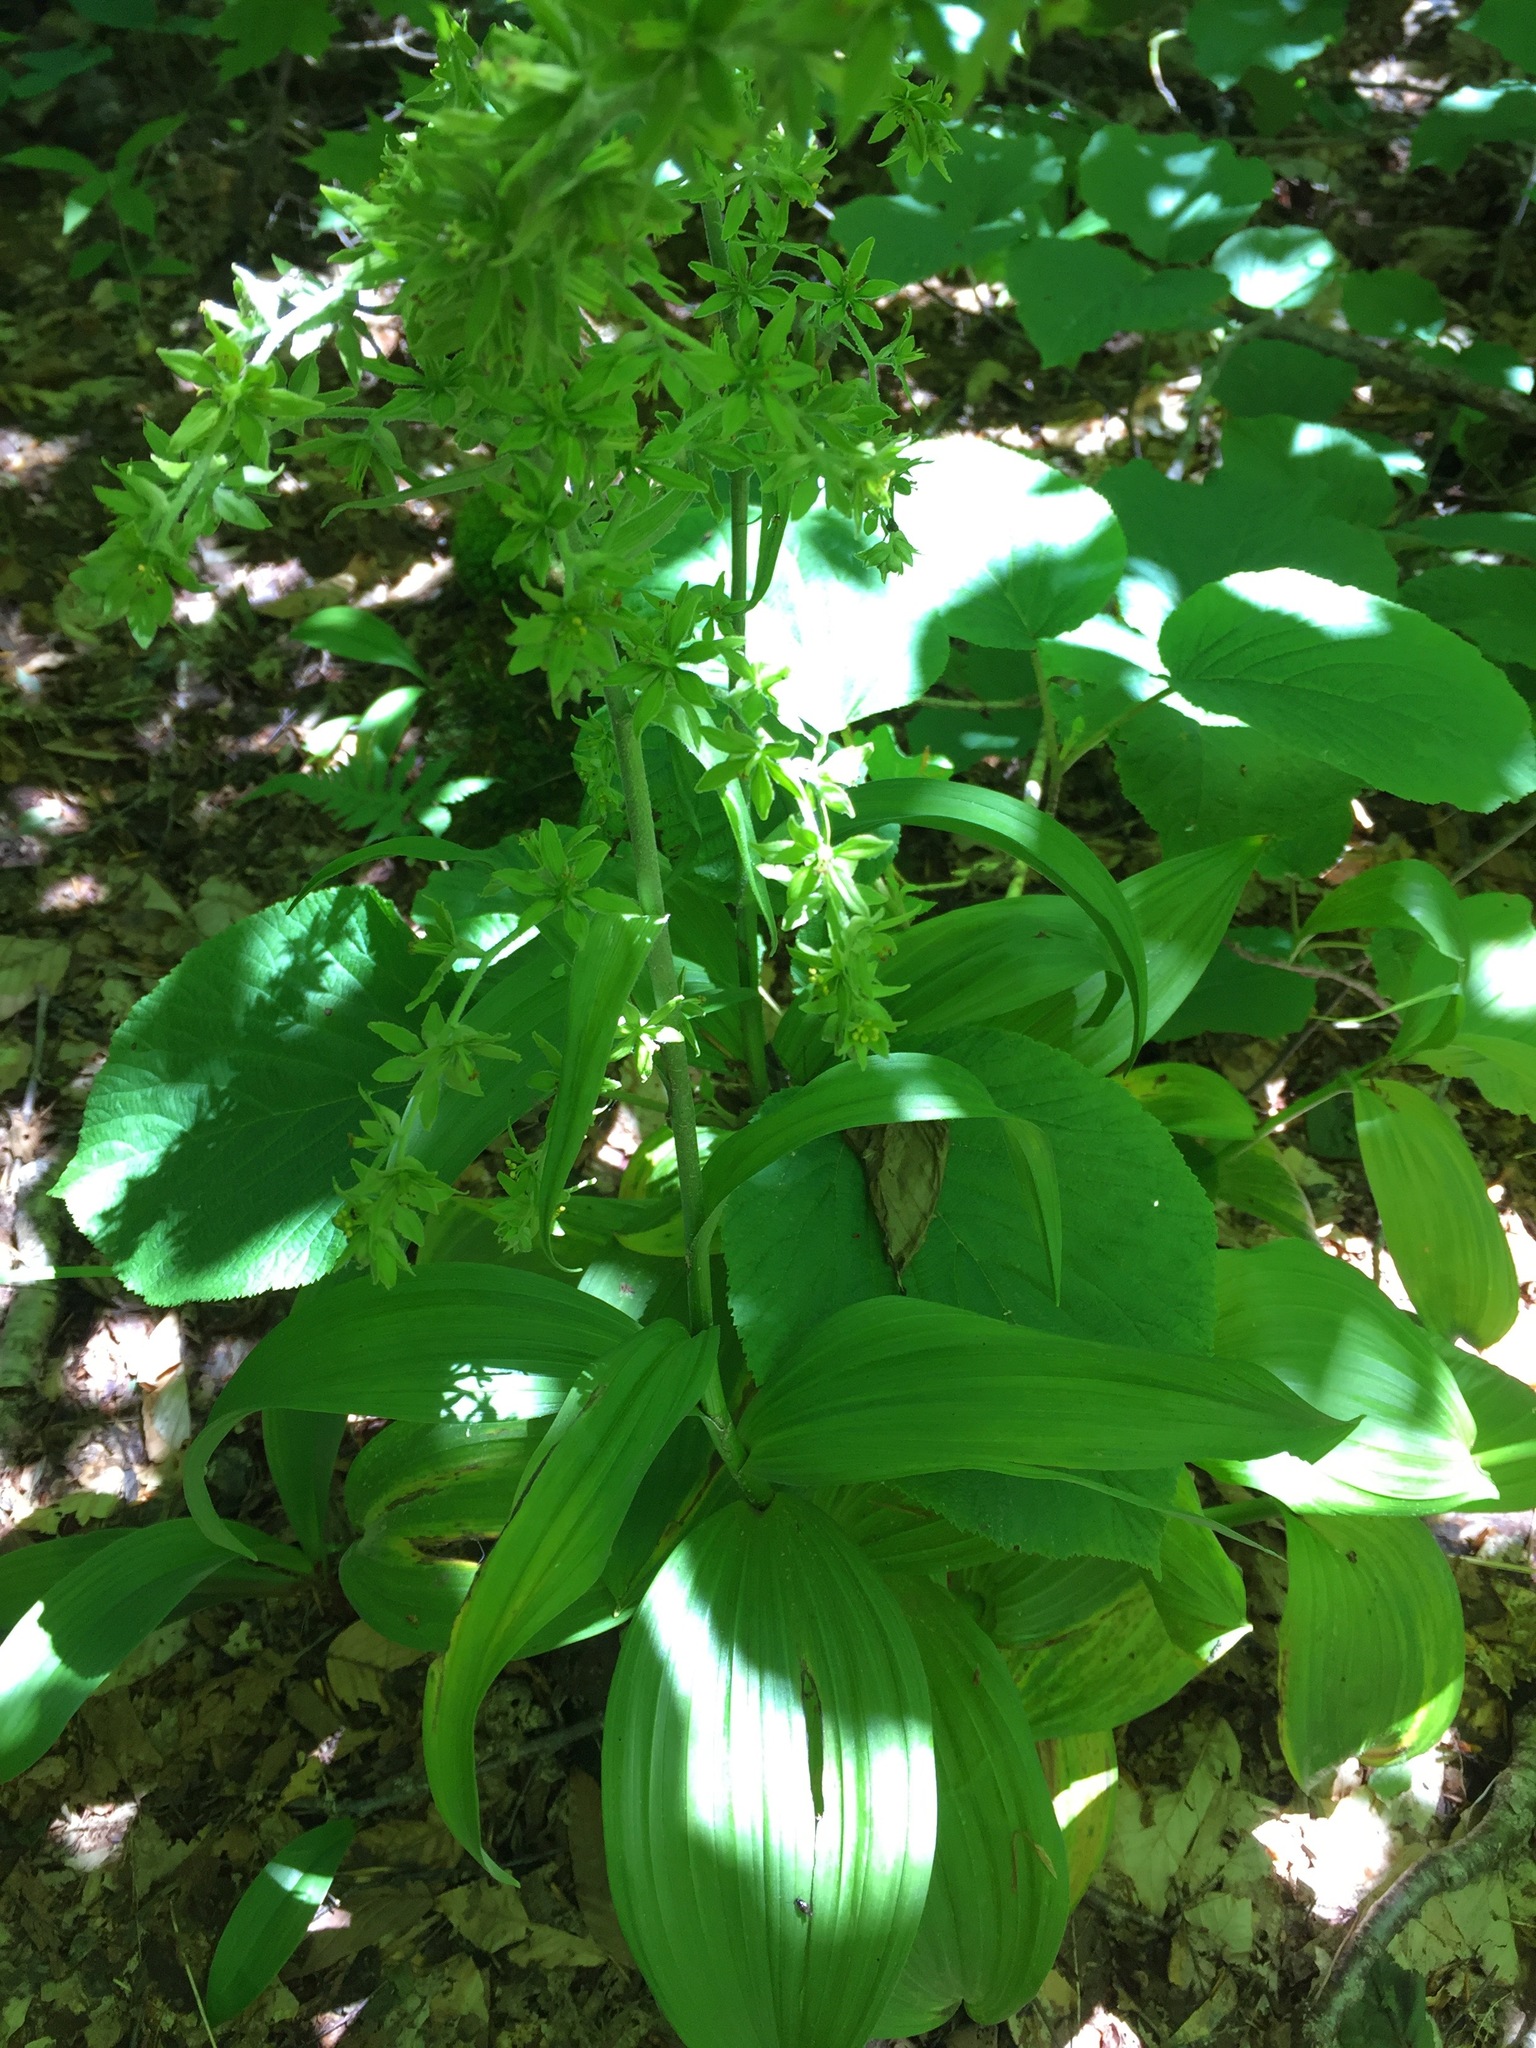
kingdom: Plantae
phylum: Tracheophyta
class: Liliopsida
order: Liliales
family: Melanthiaceae
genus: Veratrum
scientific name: Veratrum viride
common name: American false hellebore
